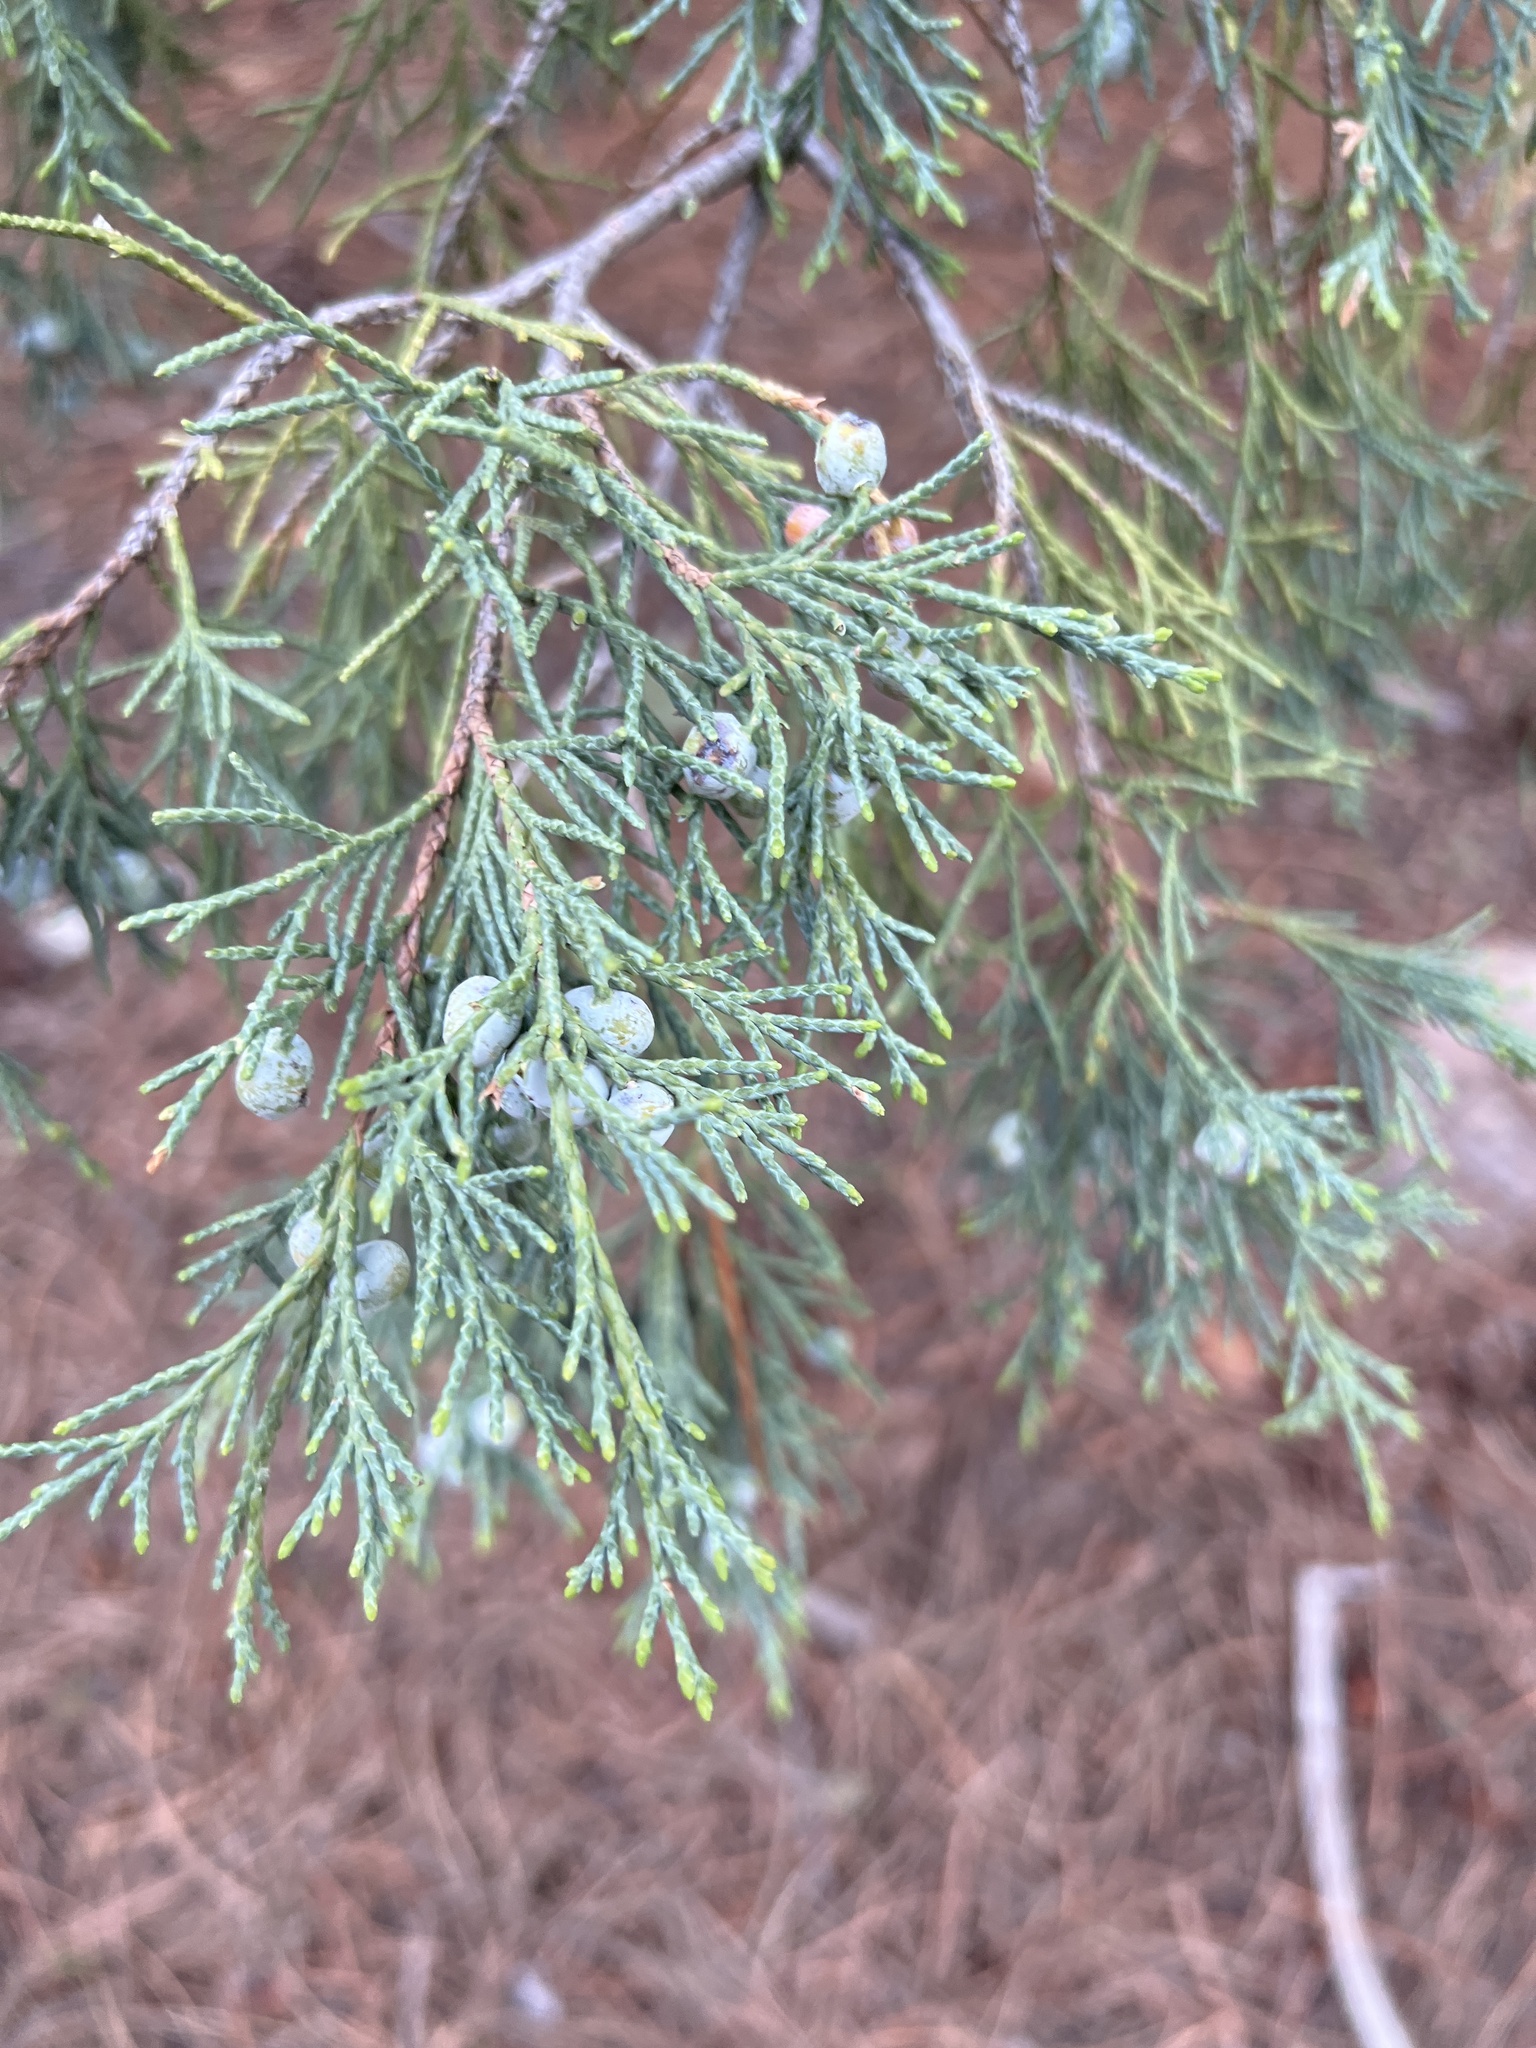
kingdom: Plantae
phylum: Tracheophyta
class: Pinopsida
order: Pinales
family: Cupressaceae
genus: Juniperus
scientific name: Juniperus scopulorum
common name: Rocky mountain juniper
